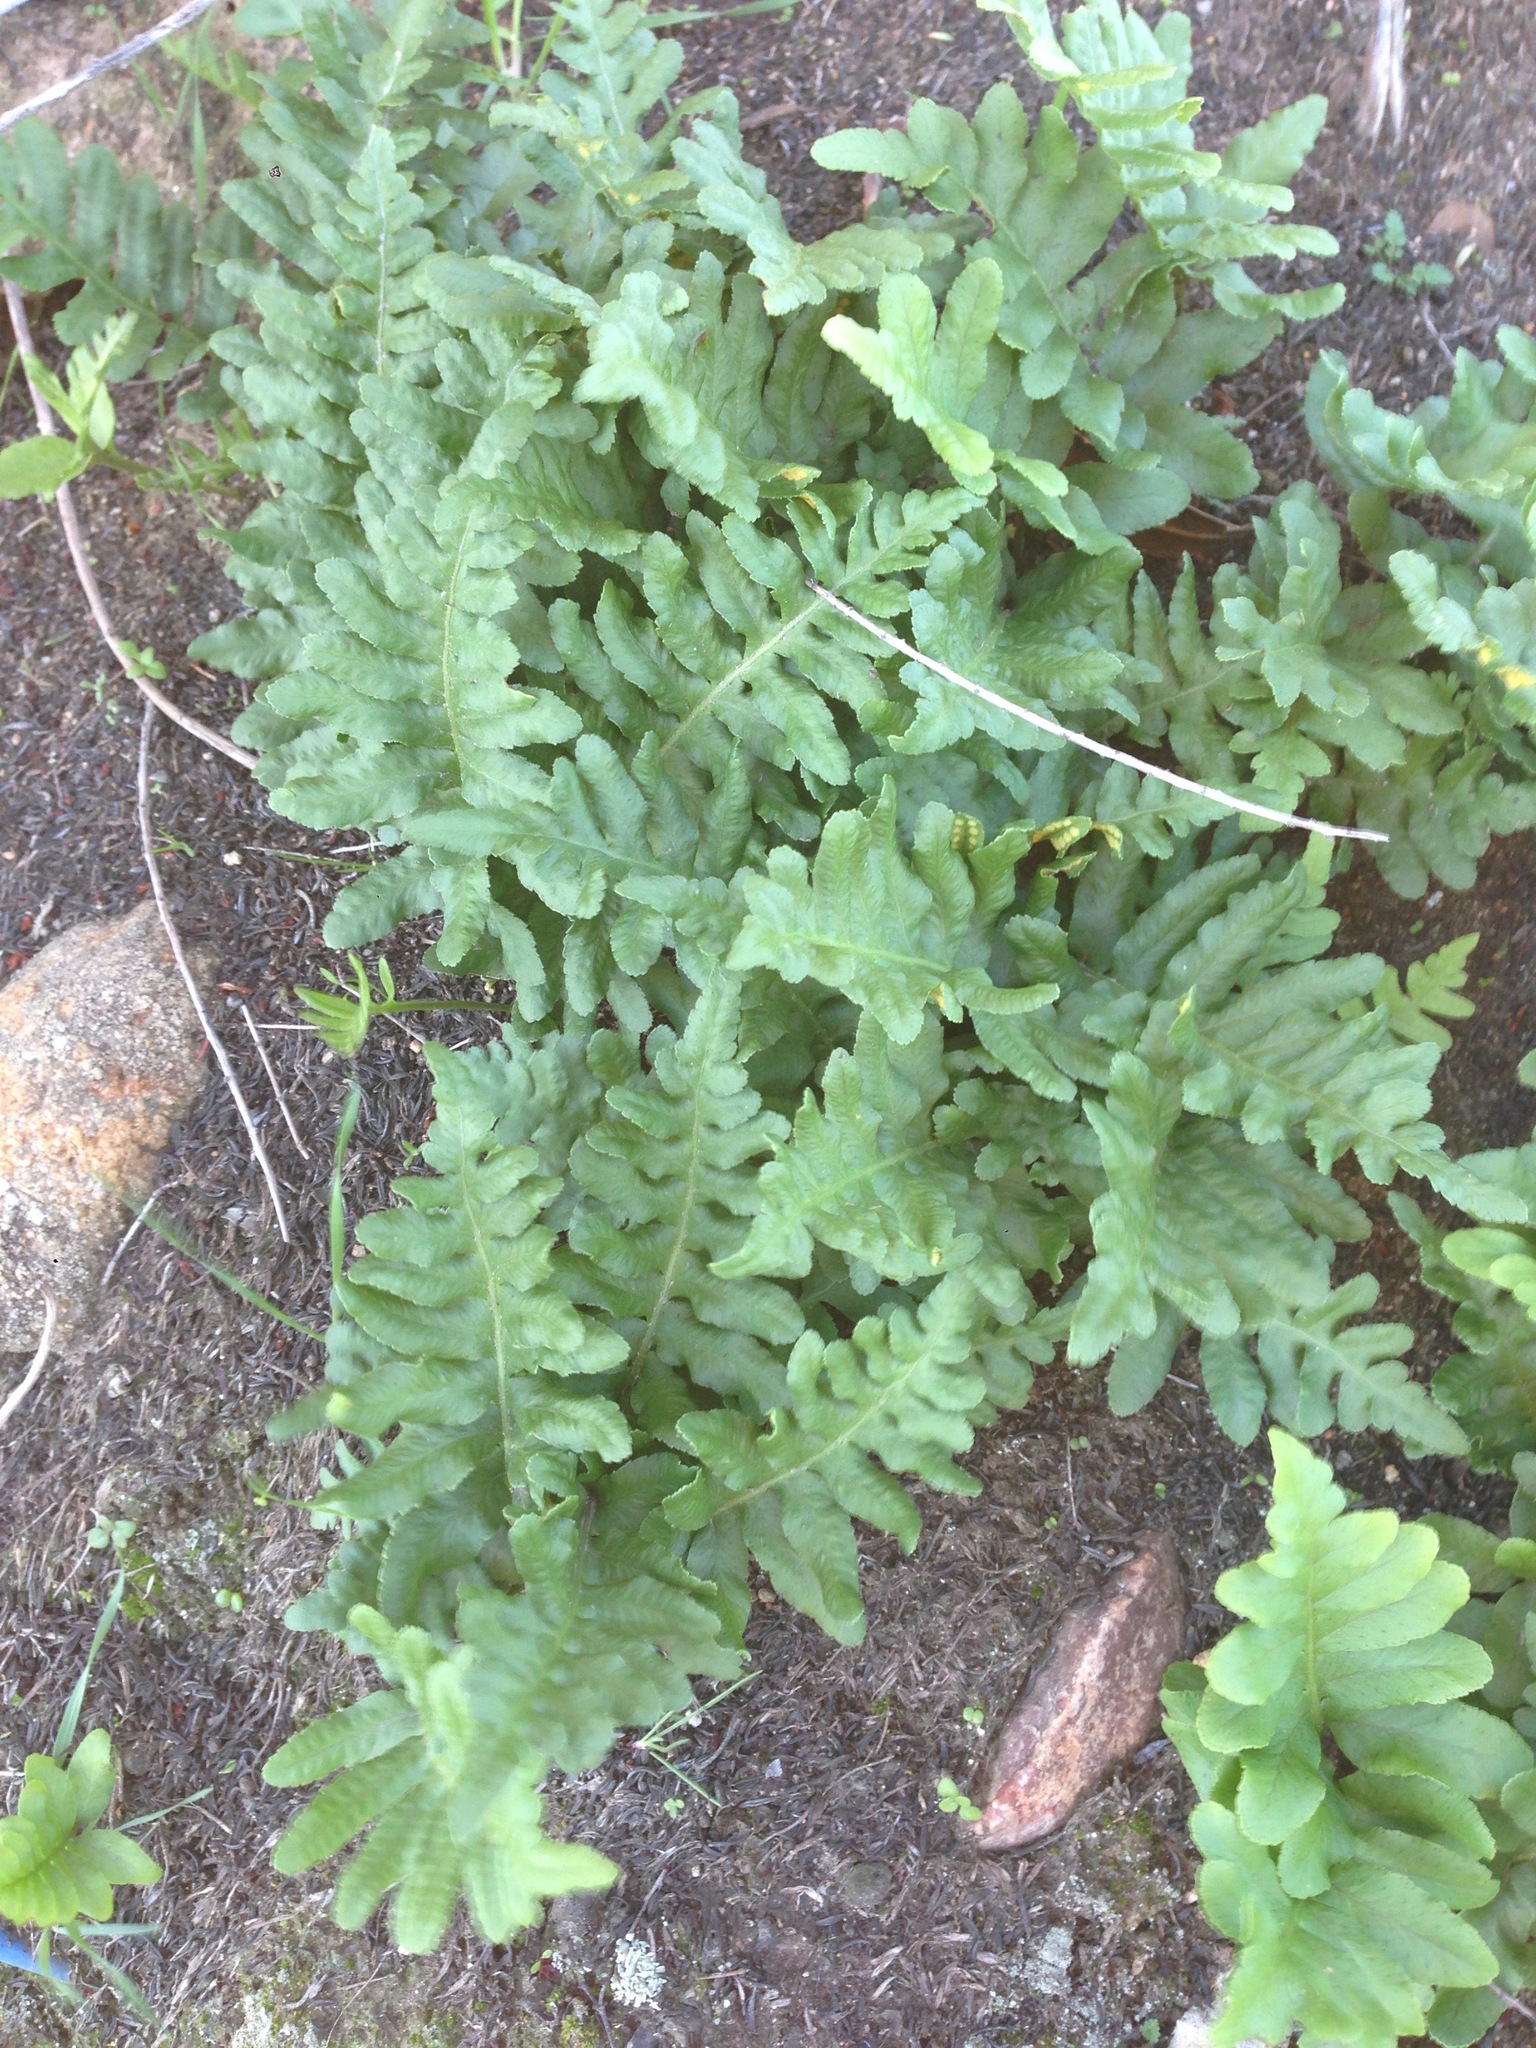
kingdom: Plantae
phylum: Tracheophyta
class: Polypodiopsida
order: Polypodiales
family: Polypodiaceae
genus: Polypodium
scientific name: Polypodium californicum
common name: California polypody
